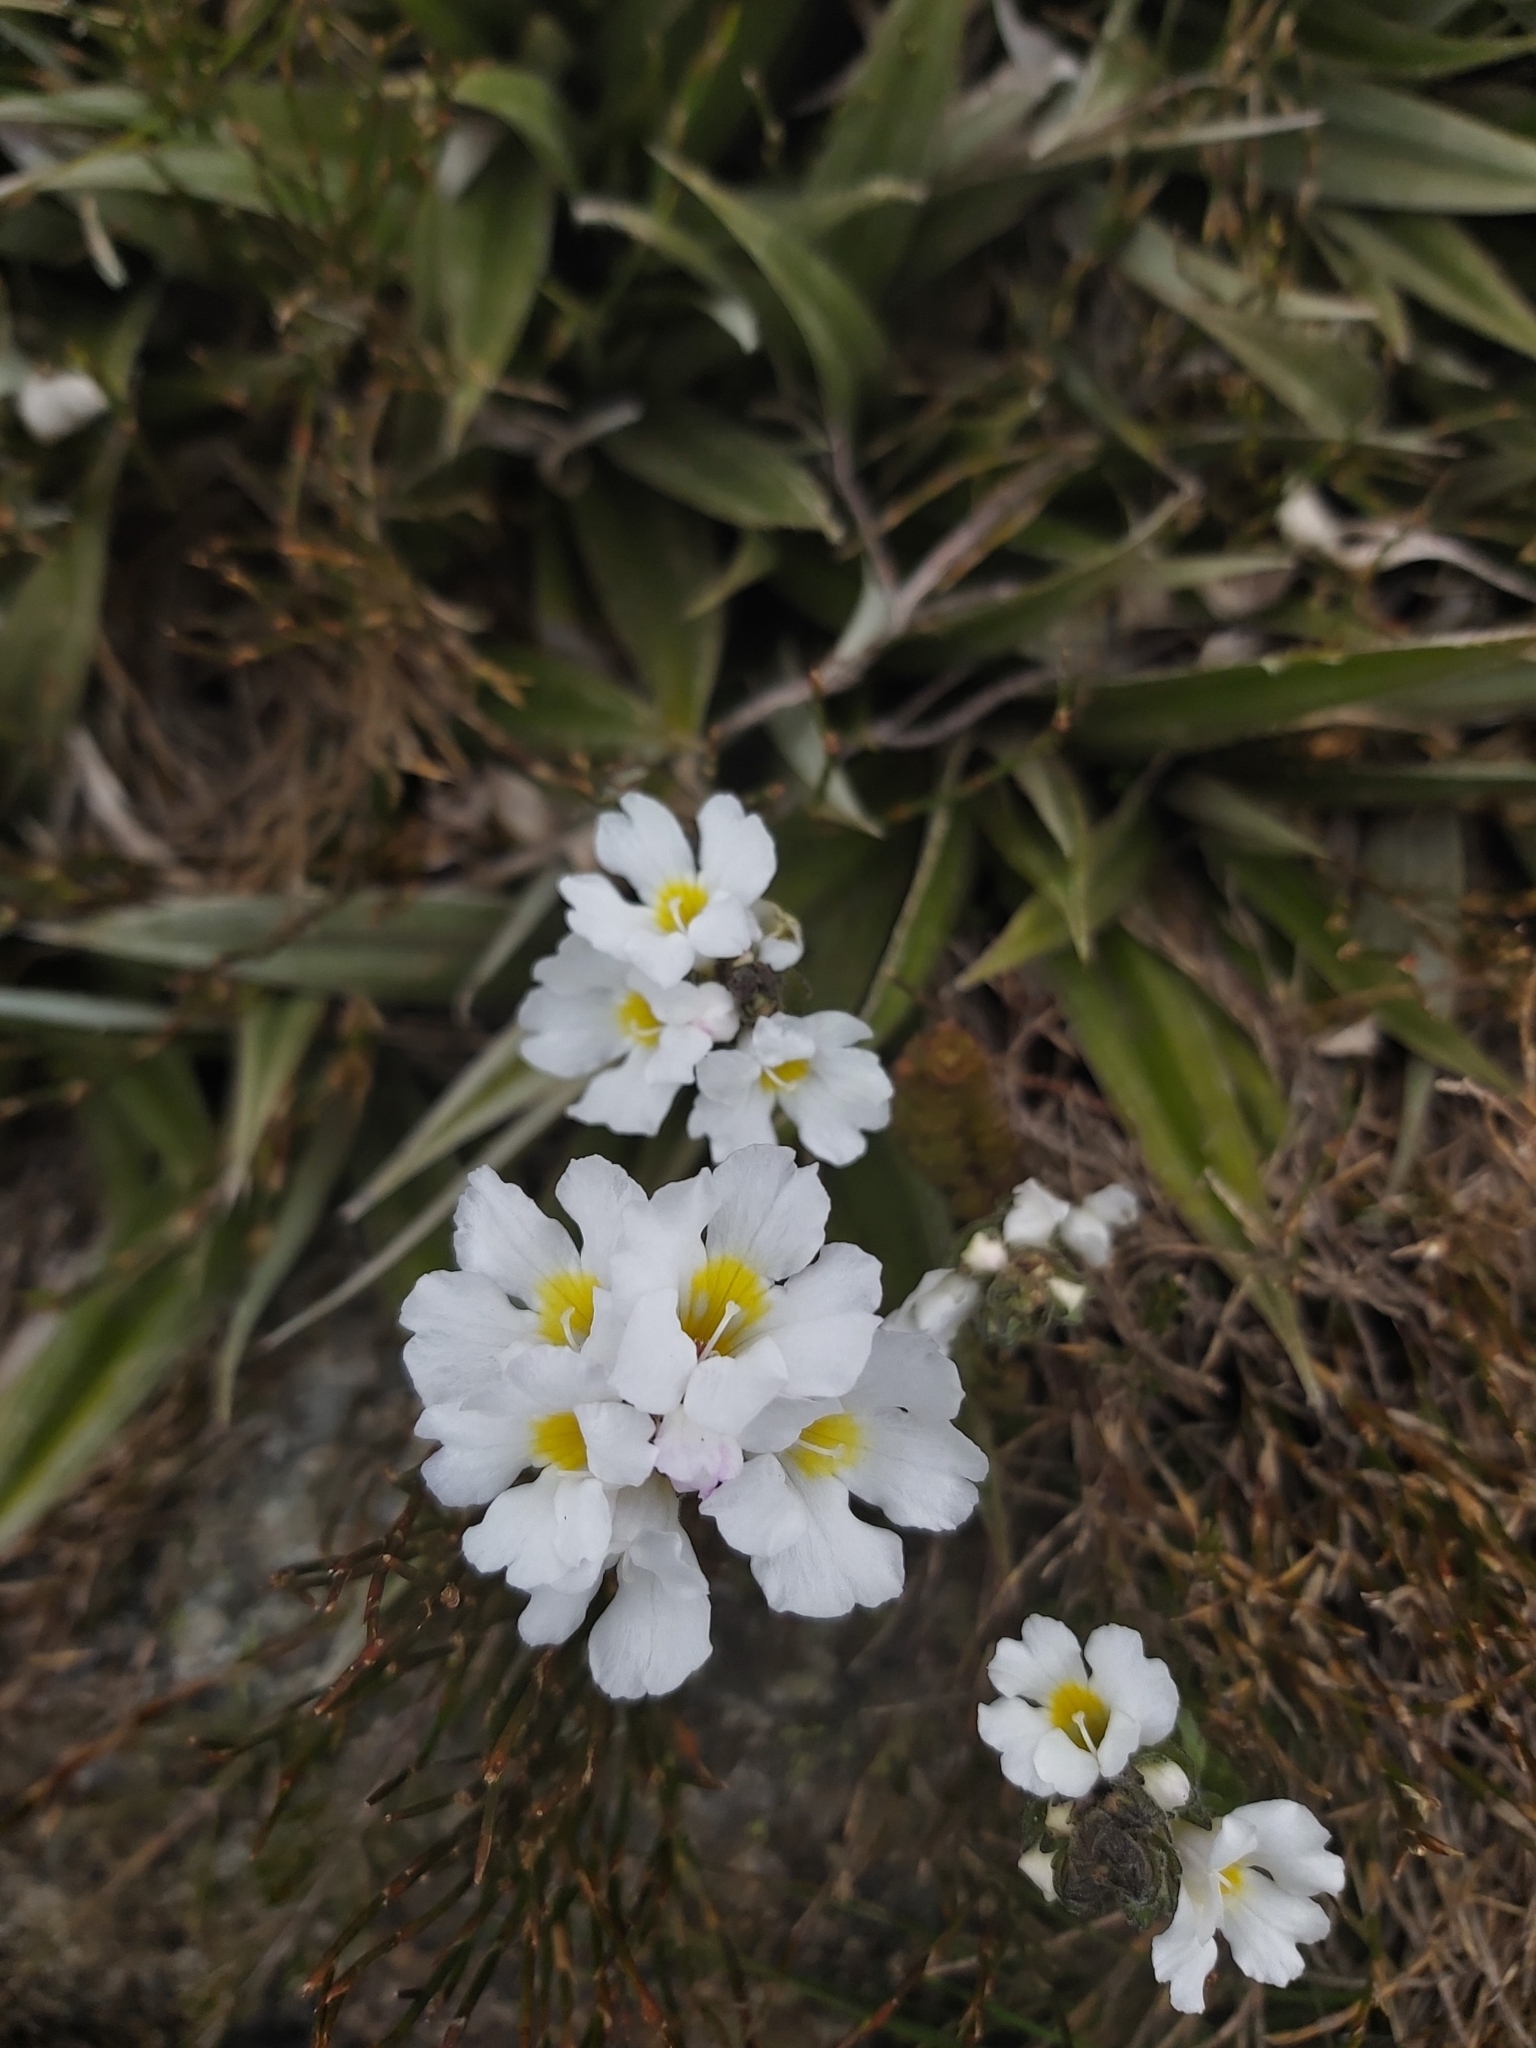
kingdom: Plantae
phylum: Tracheophyta
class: Magnoliopsida
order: Lamiales
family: Orobanchaceae
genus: Euphrasia
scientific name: Euphrasia collina
